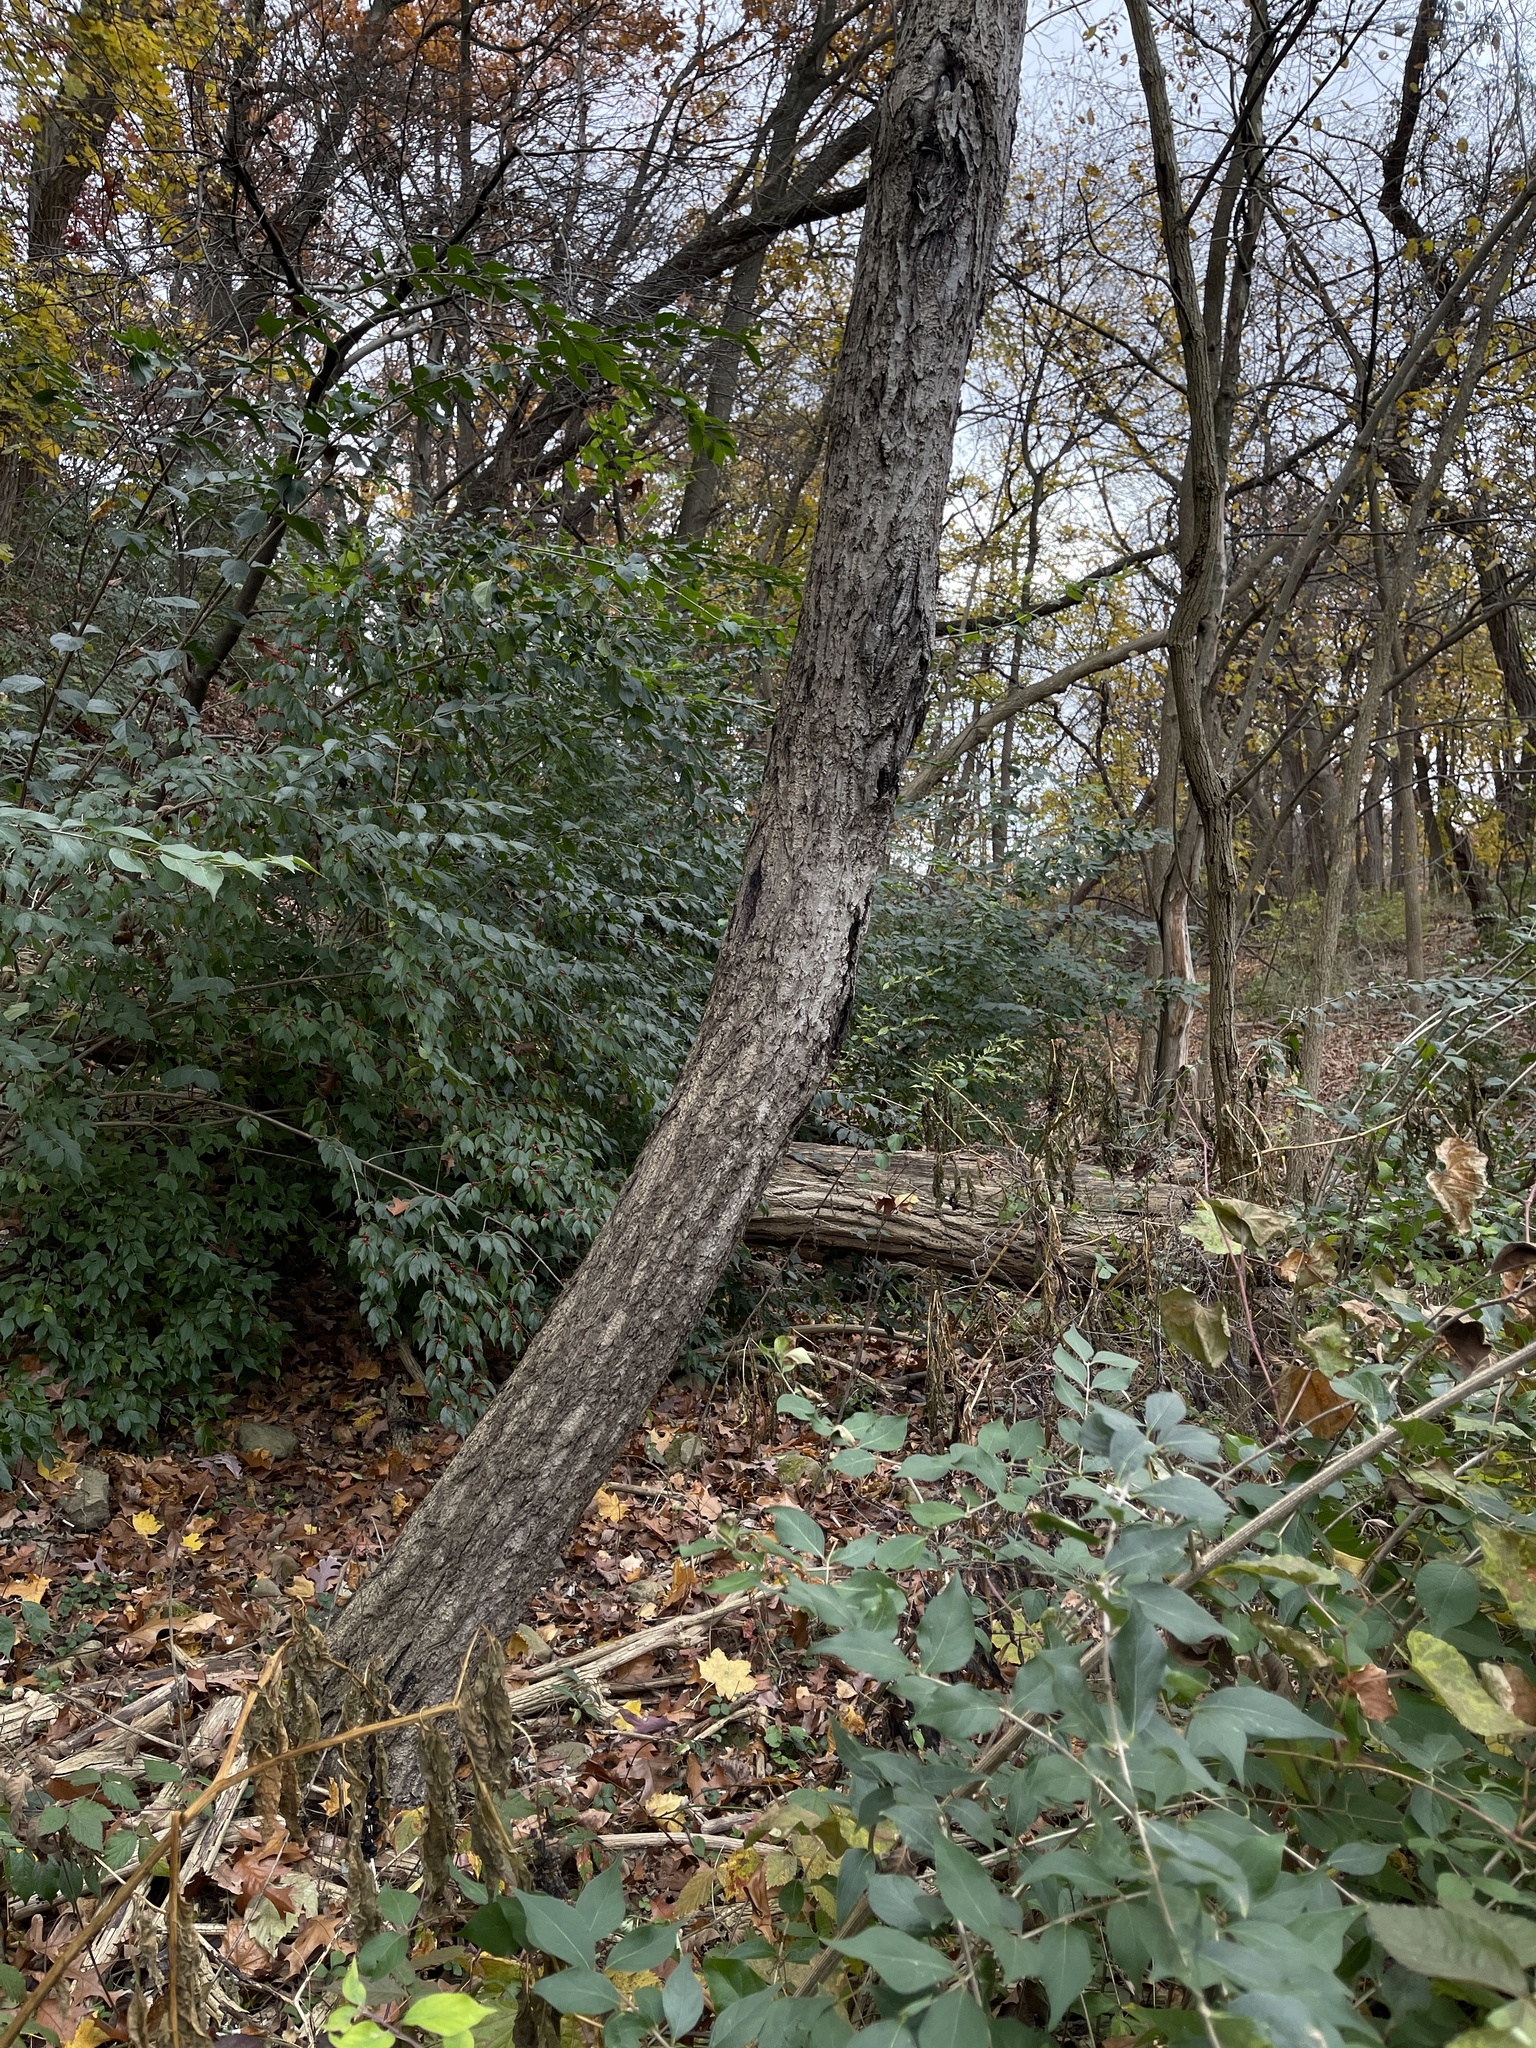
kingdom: Plantae
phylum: Tracheophyta
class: Magnoliopsida
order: Fagales
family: Juglandaceae
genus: Juglans
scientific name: Juglans cinerea
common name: Butternut
